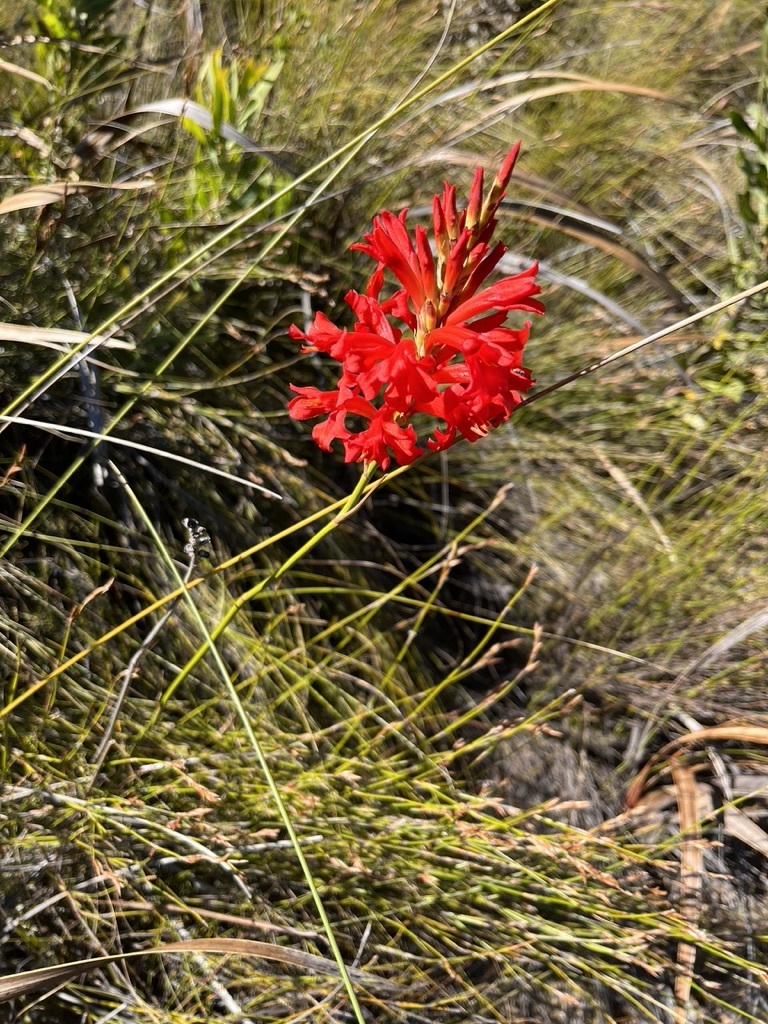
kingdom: Plantae
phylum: Tracheophyta
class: Liliopsida
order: Asparagales
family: Iridaceae
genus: Tritoniopsis
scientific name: Tritoniopsis triticea
